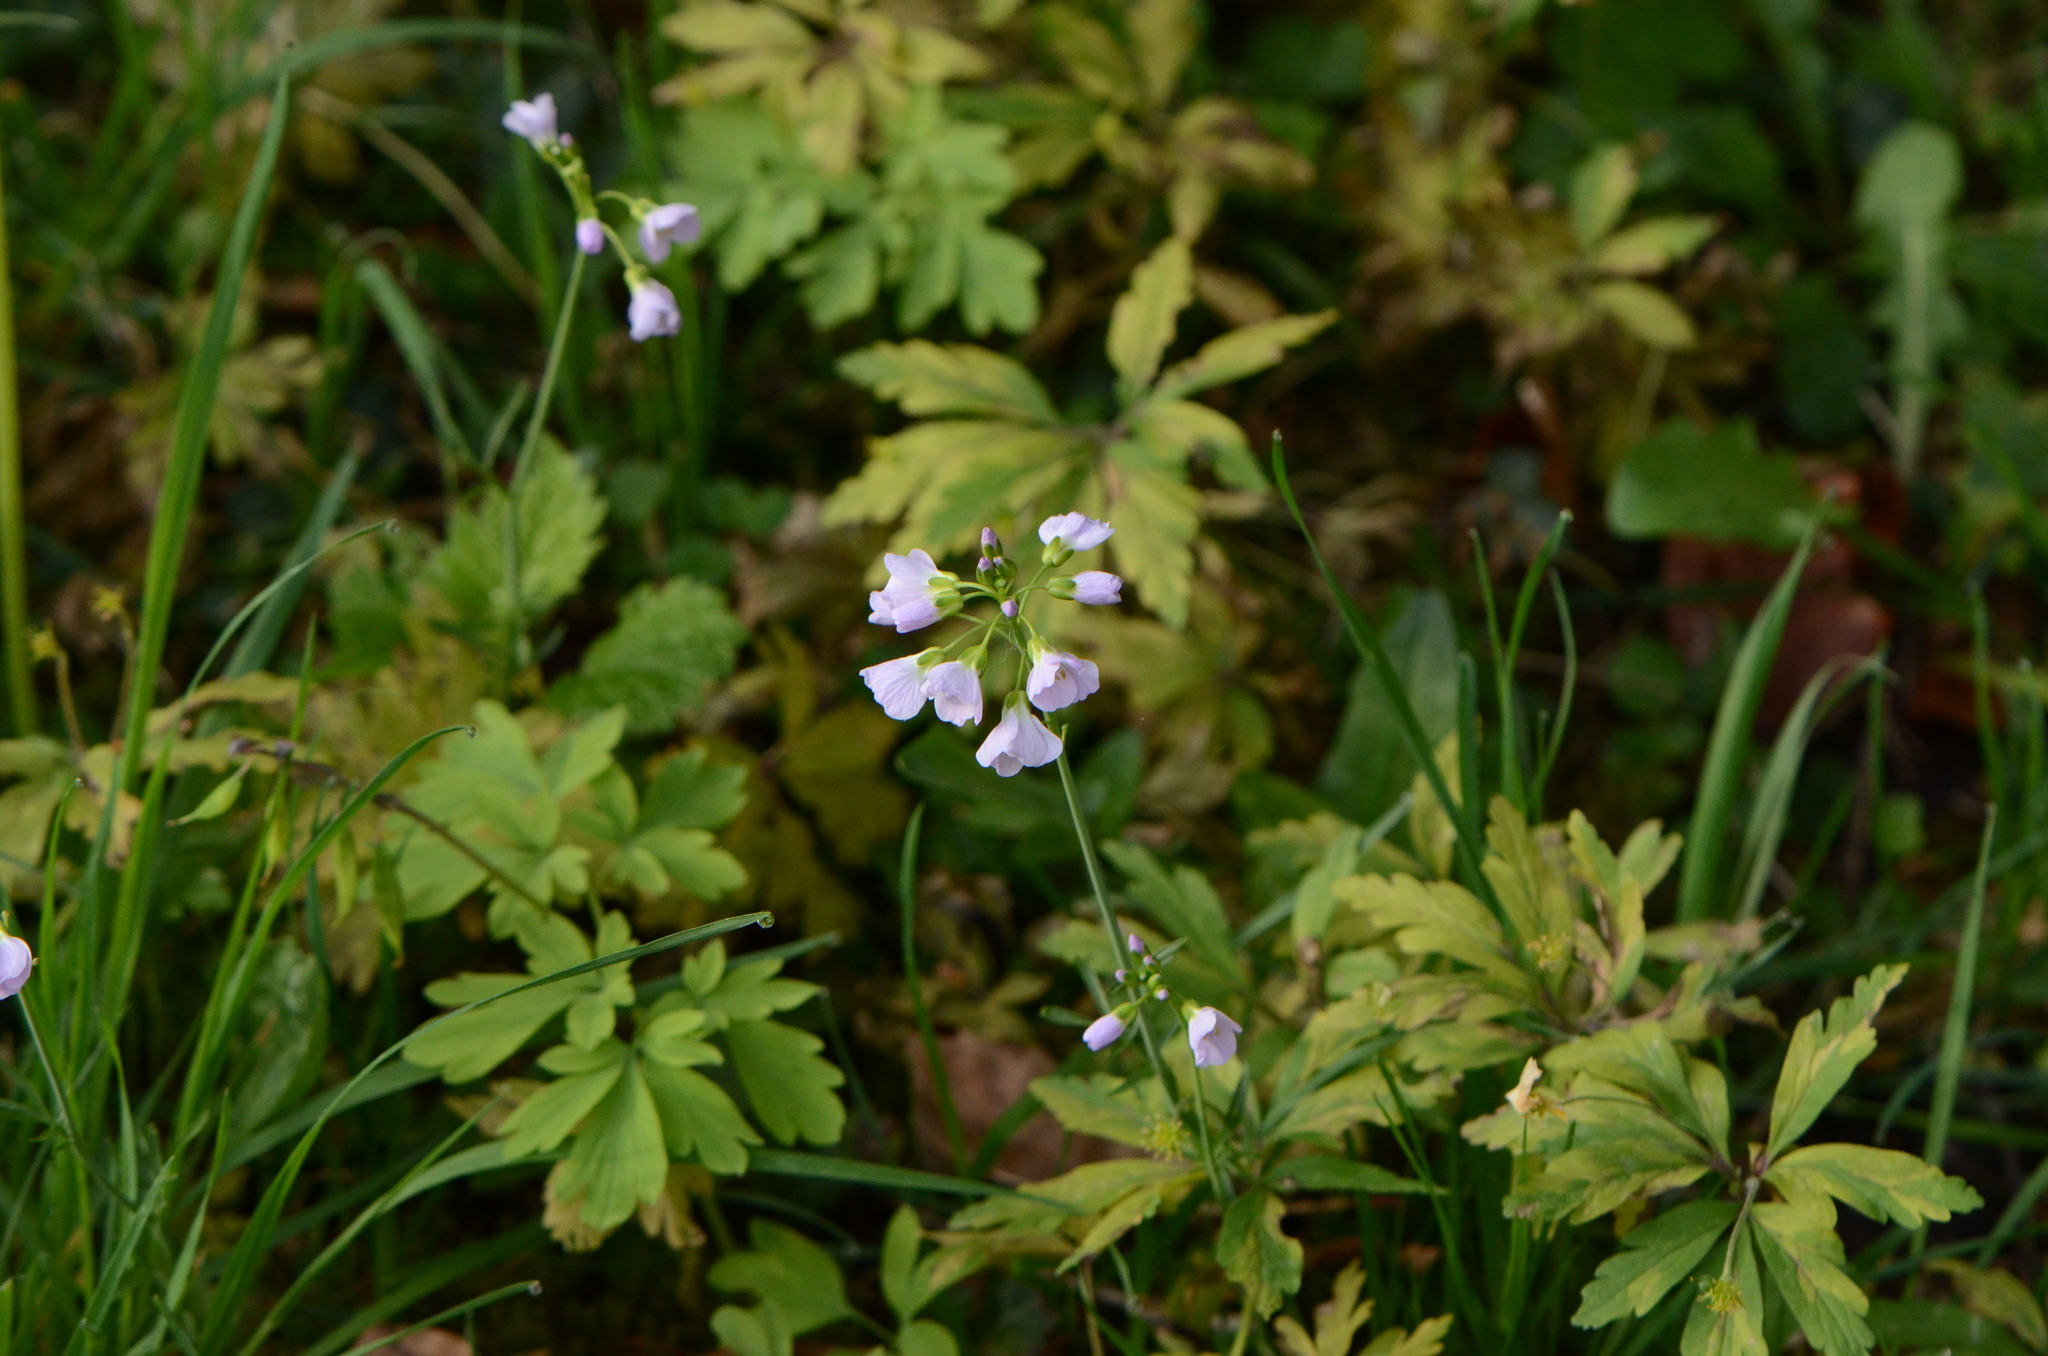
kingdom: Plantae
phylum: Tracheophyta
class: Magnoliopsida
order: Brassicales
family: Brassicaceae
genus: Cardamine
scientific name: Cardamine pratensis
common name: Cuckoo flower
